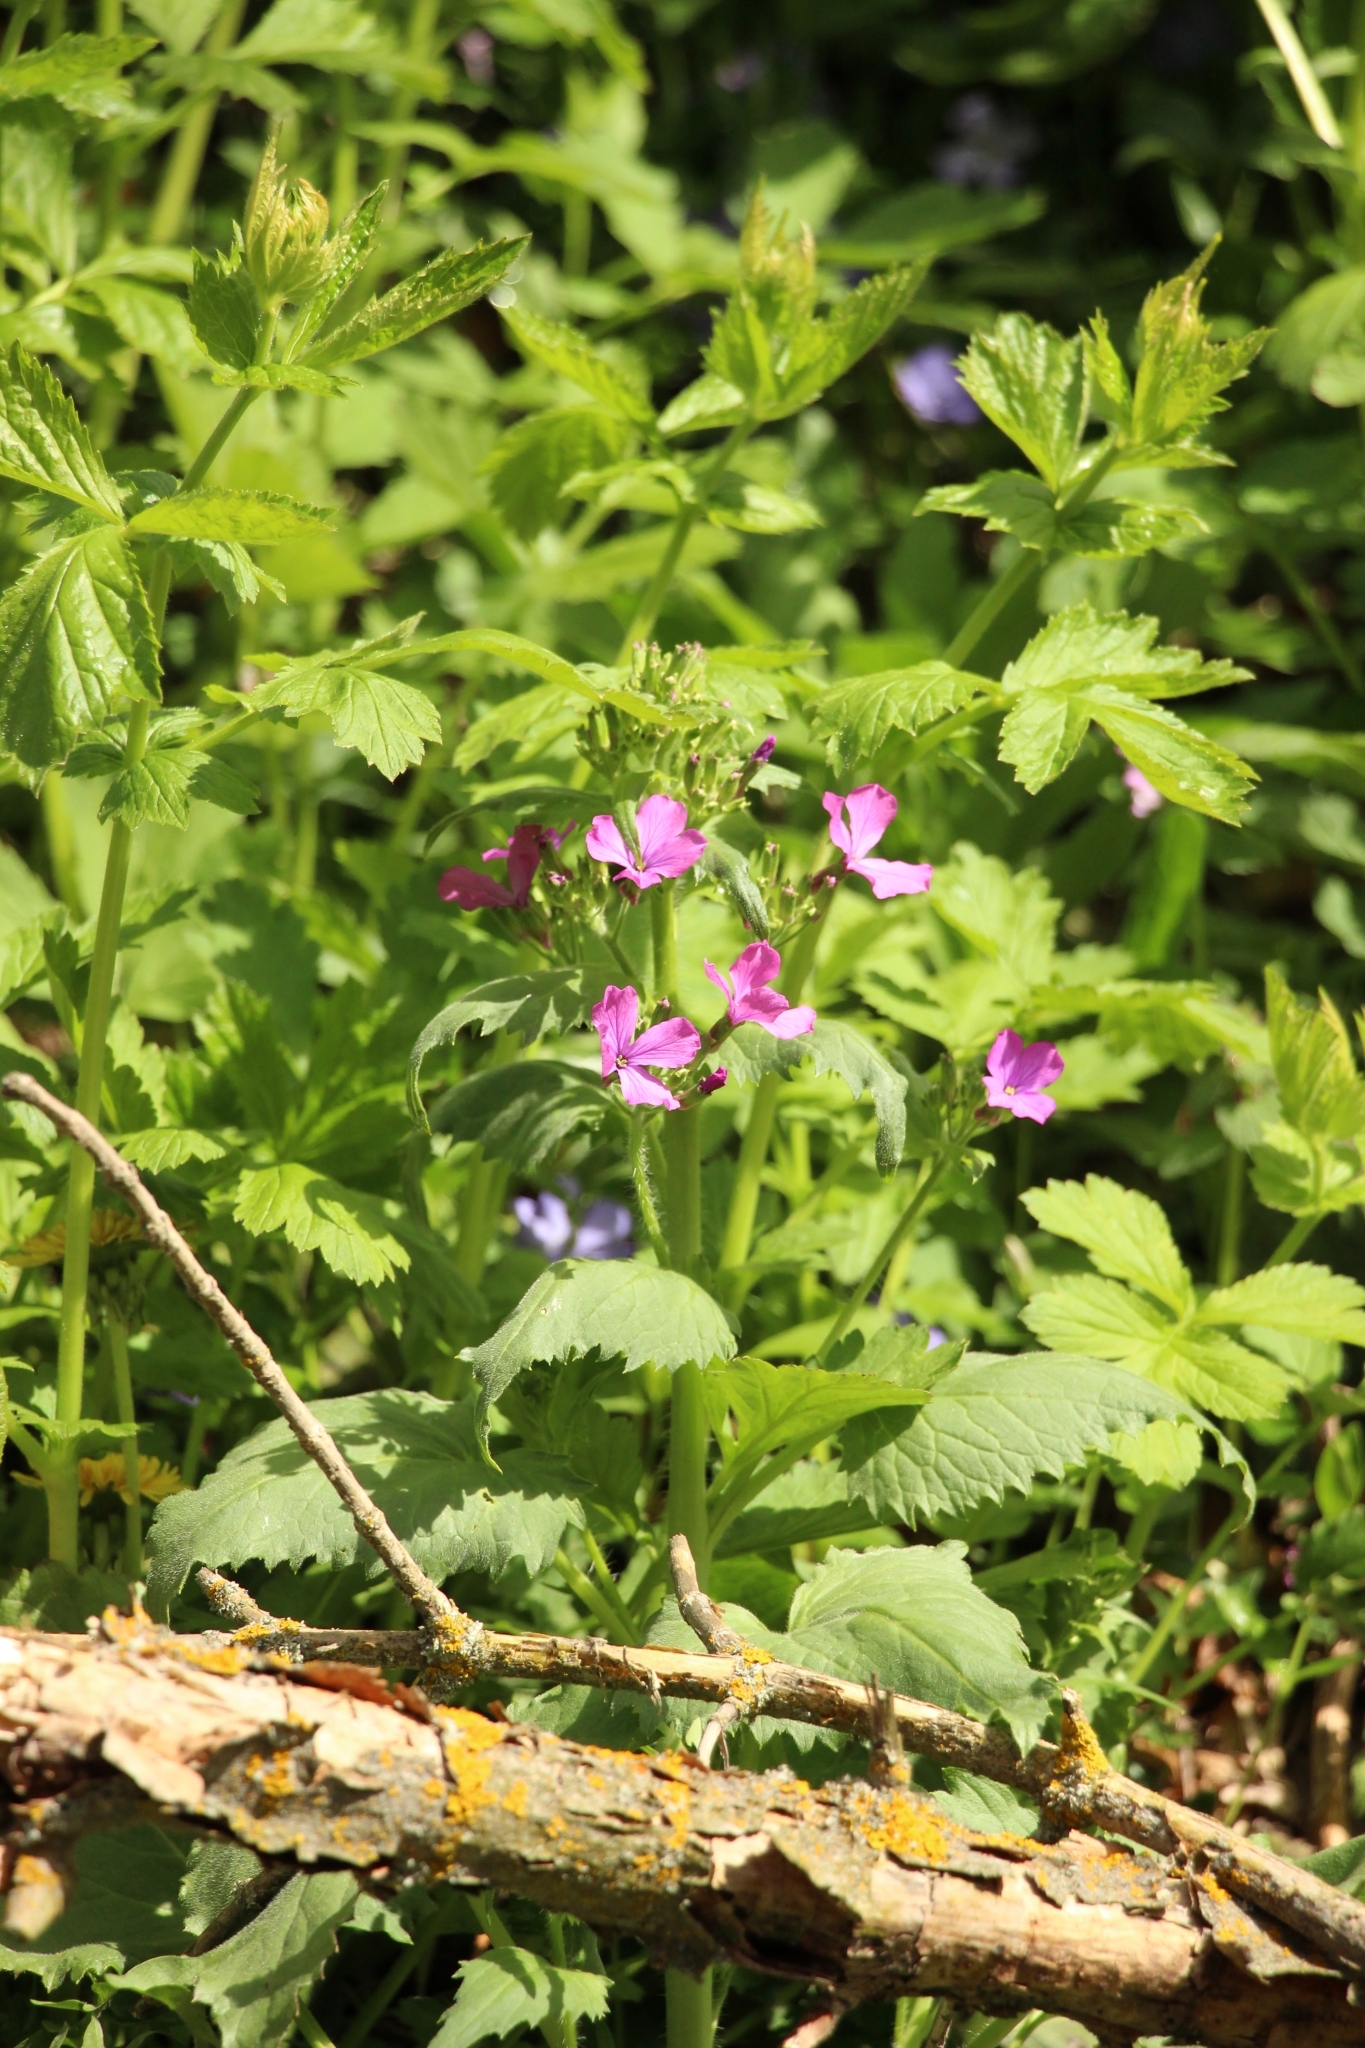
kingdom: Plantae
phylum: Tracheophyta
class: Magnoliopsida
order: Brassicales
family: Brassicaceae
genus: Lunaria
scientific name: Lunaria annua
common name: Honesty
